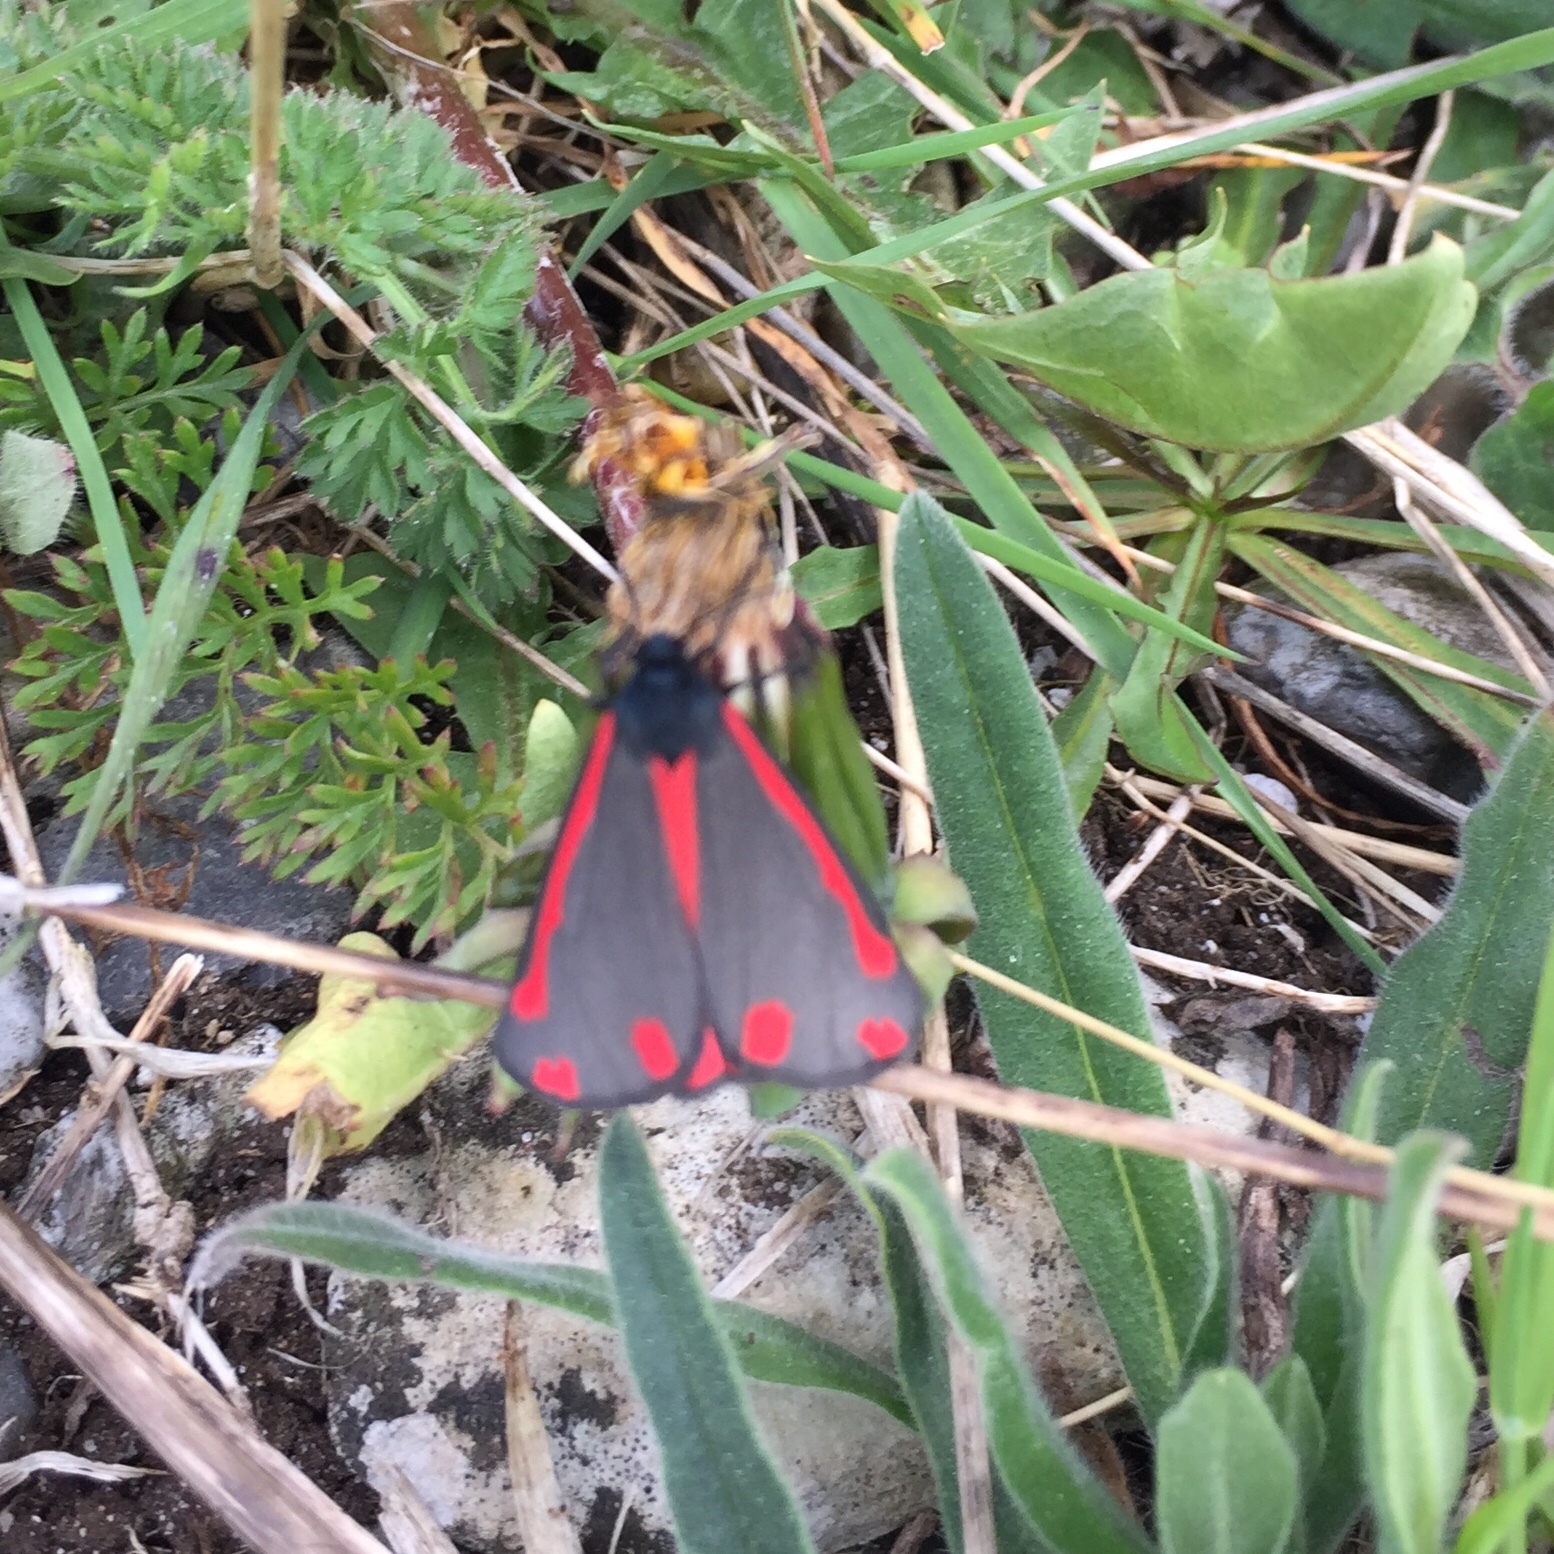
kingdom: Animalia
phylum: Arthropoda
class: Insecta
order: Lepidoptera
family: Erebidae
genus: Tyria
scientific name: Tyria jacobaeae
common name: Cinnabar
